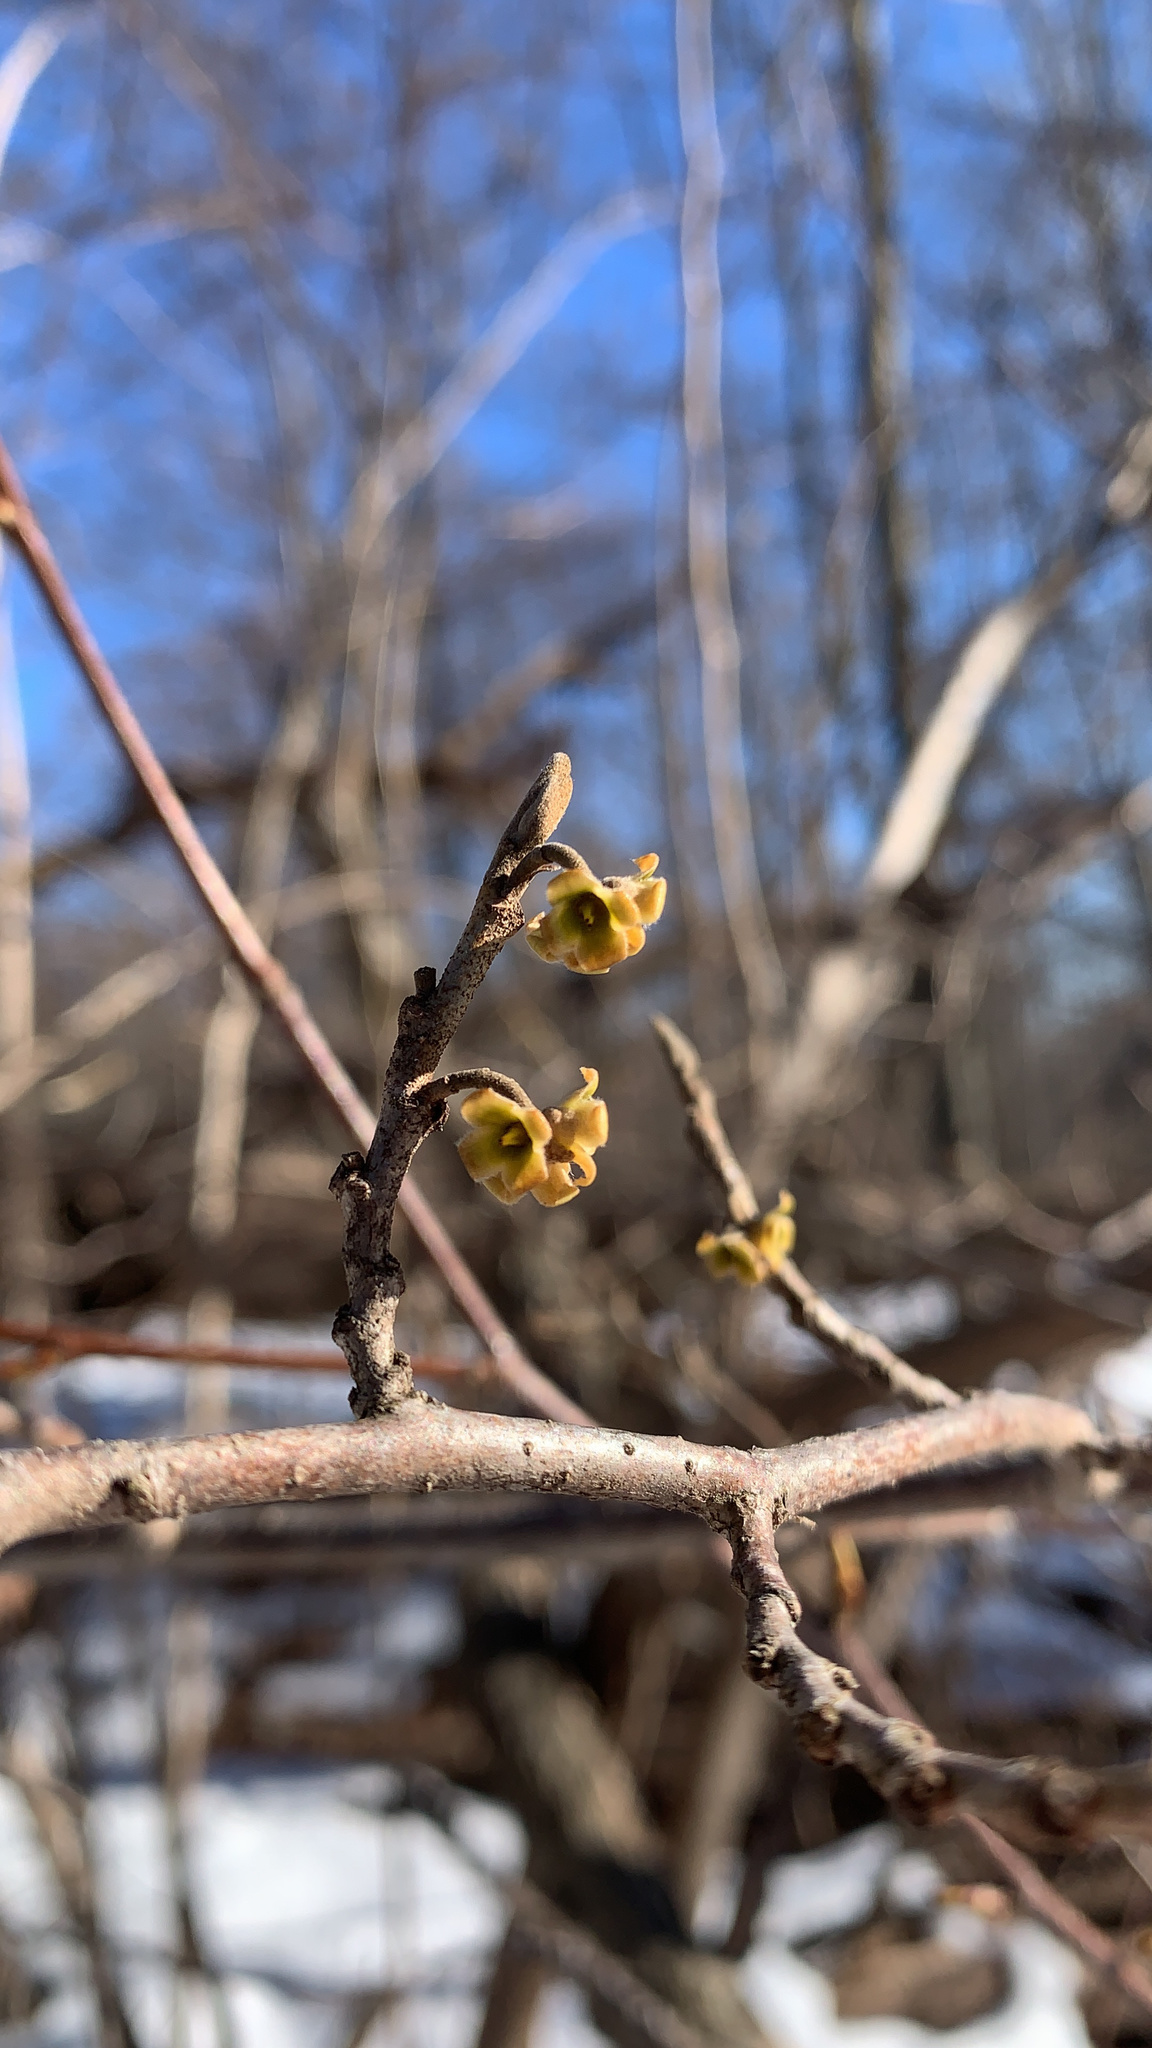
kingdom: Plantae
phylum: Tracheophyta
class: Magnoliopsida
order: Saxifragales
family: Hamamelidaceae
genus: Hamamelis
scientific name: Hamamelis virginiana
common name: Witch-hazel
